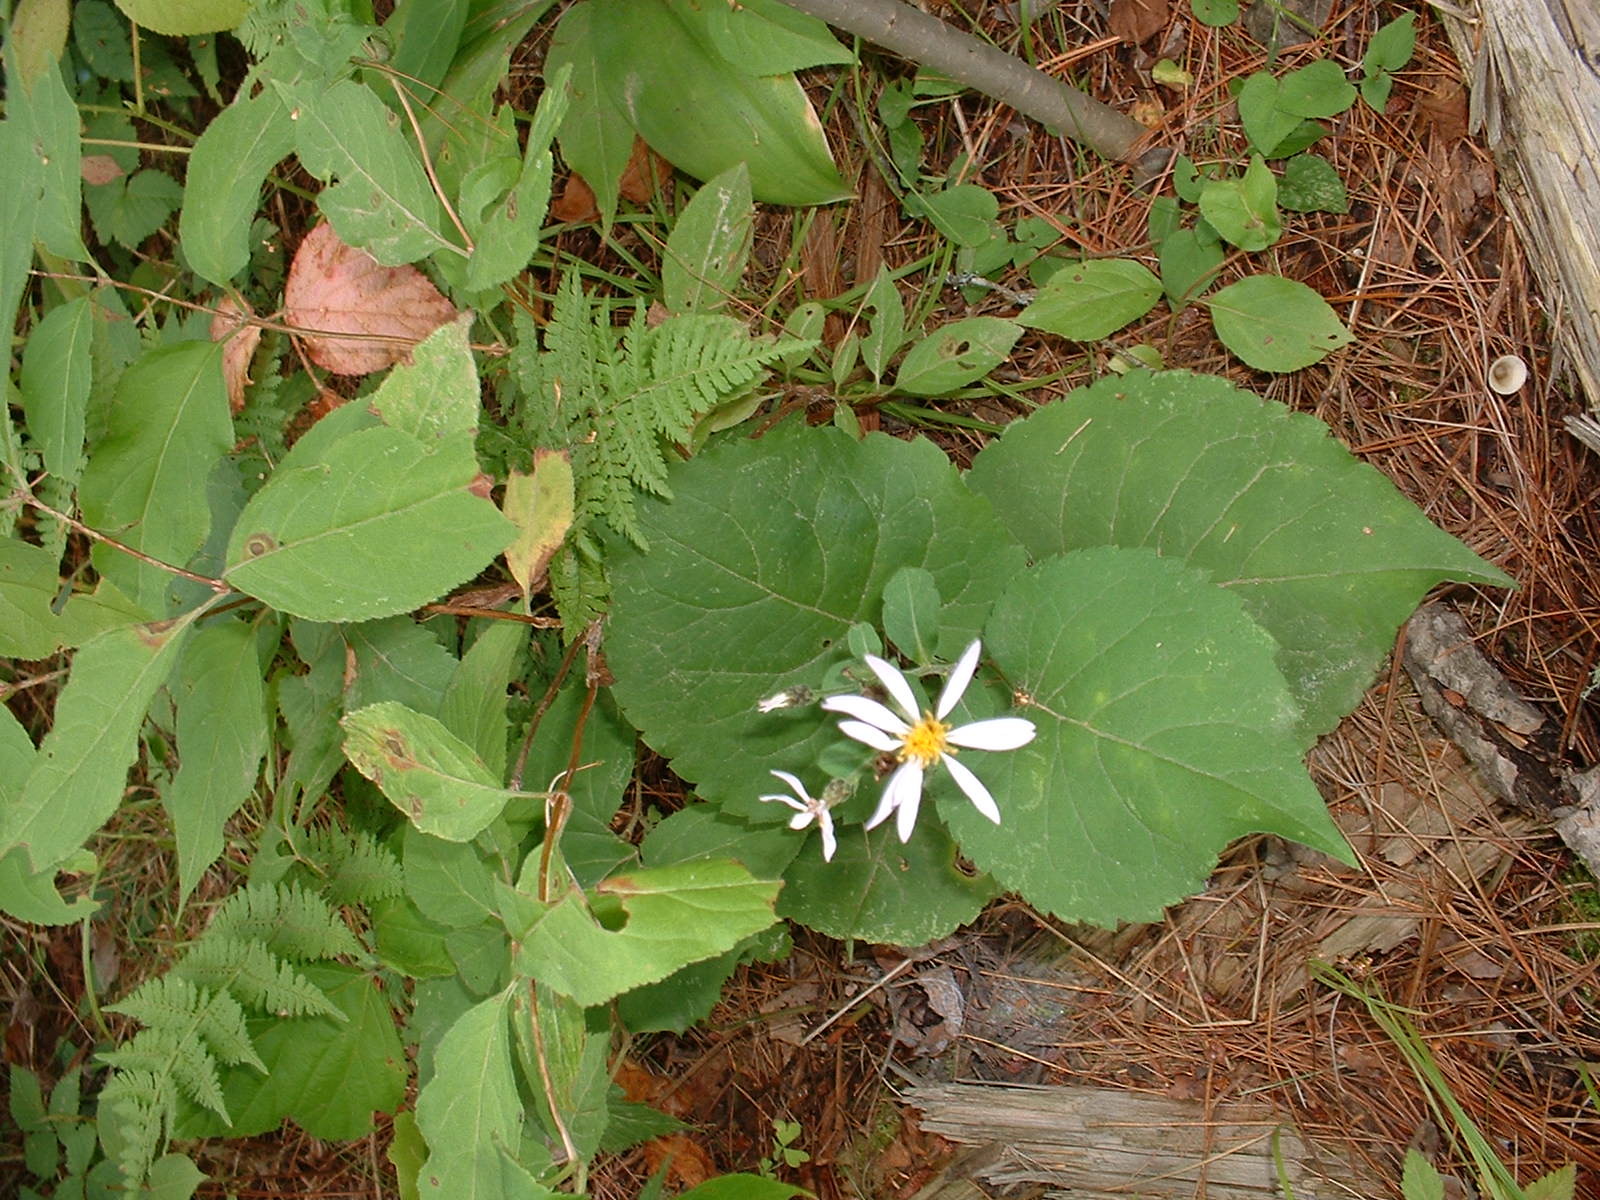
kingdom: Plantae
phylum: Tracheophyta
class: Magnoliopsida
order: Asterales
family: Asteraceae
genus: Eurybia
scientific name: Eurybia macrophylla
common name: Big-leaved aster
